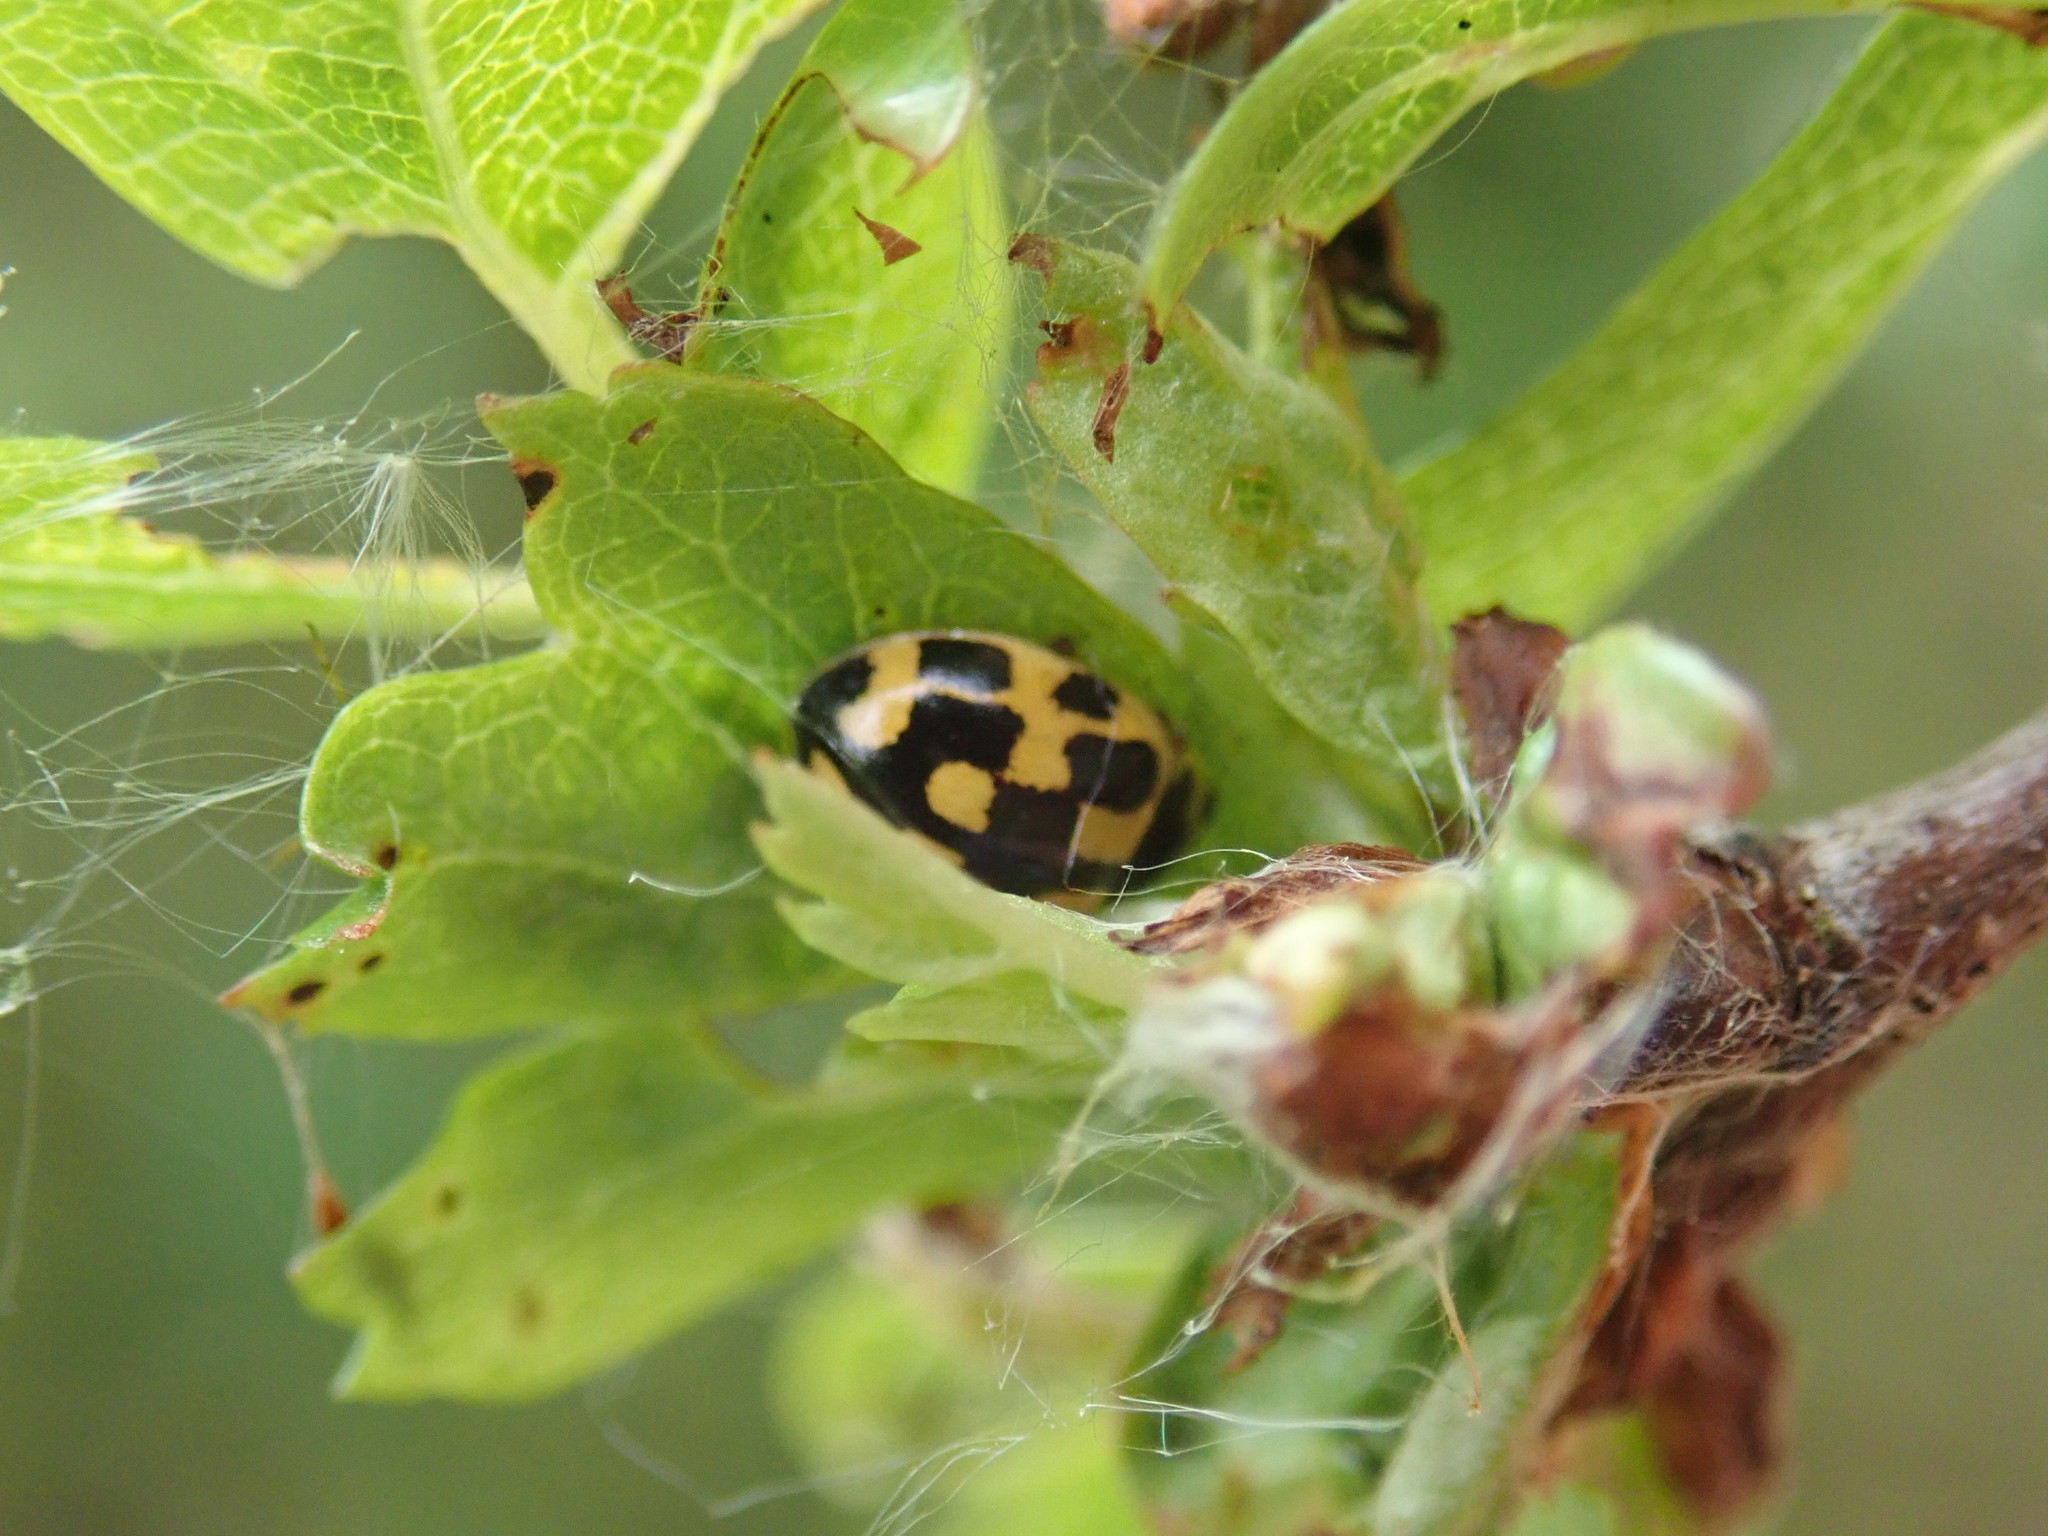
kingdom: Animalia
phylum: Arthropoda
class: Insecta
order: Coleoptera
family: Coccinellidae
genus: Propylaea
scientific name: Propylaea quatuordecimpunctata
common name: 14-spotted ladybird beetle
